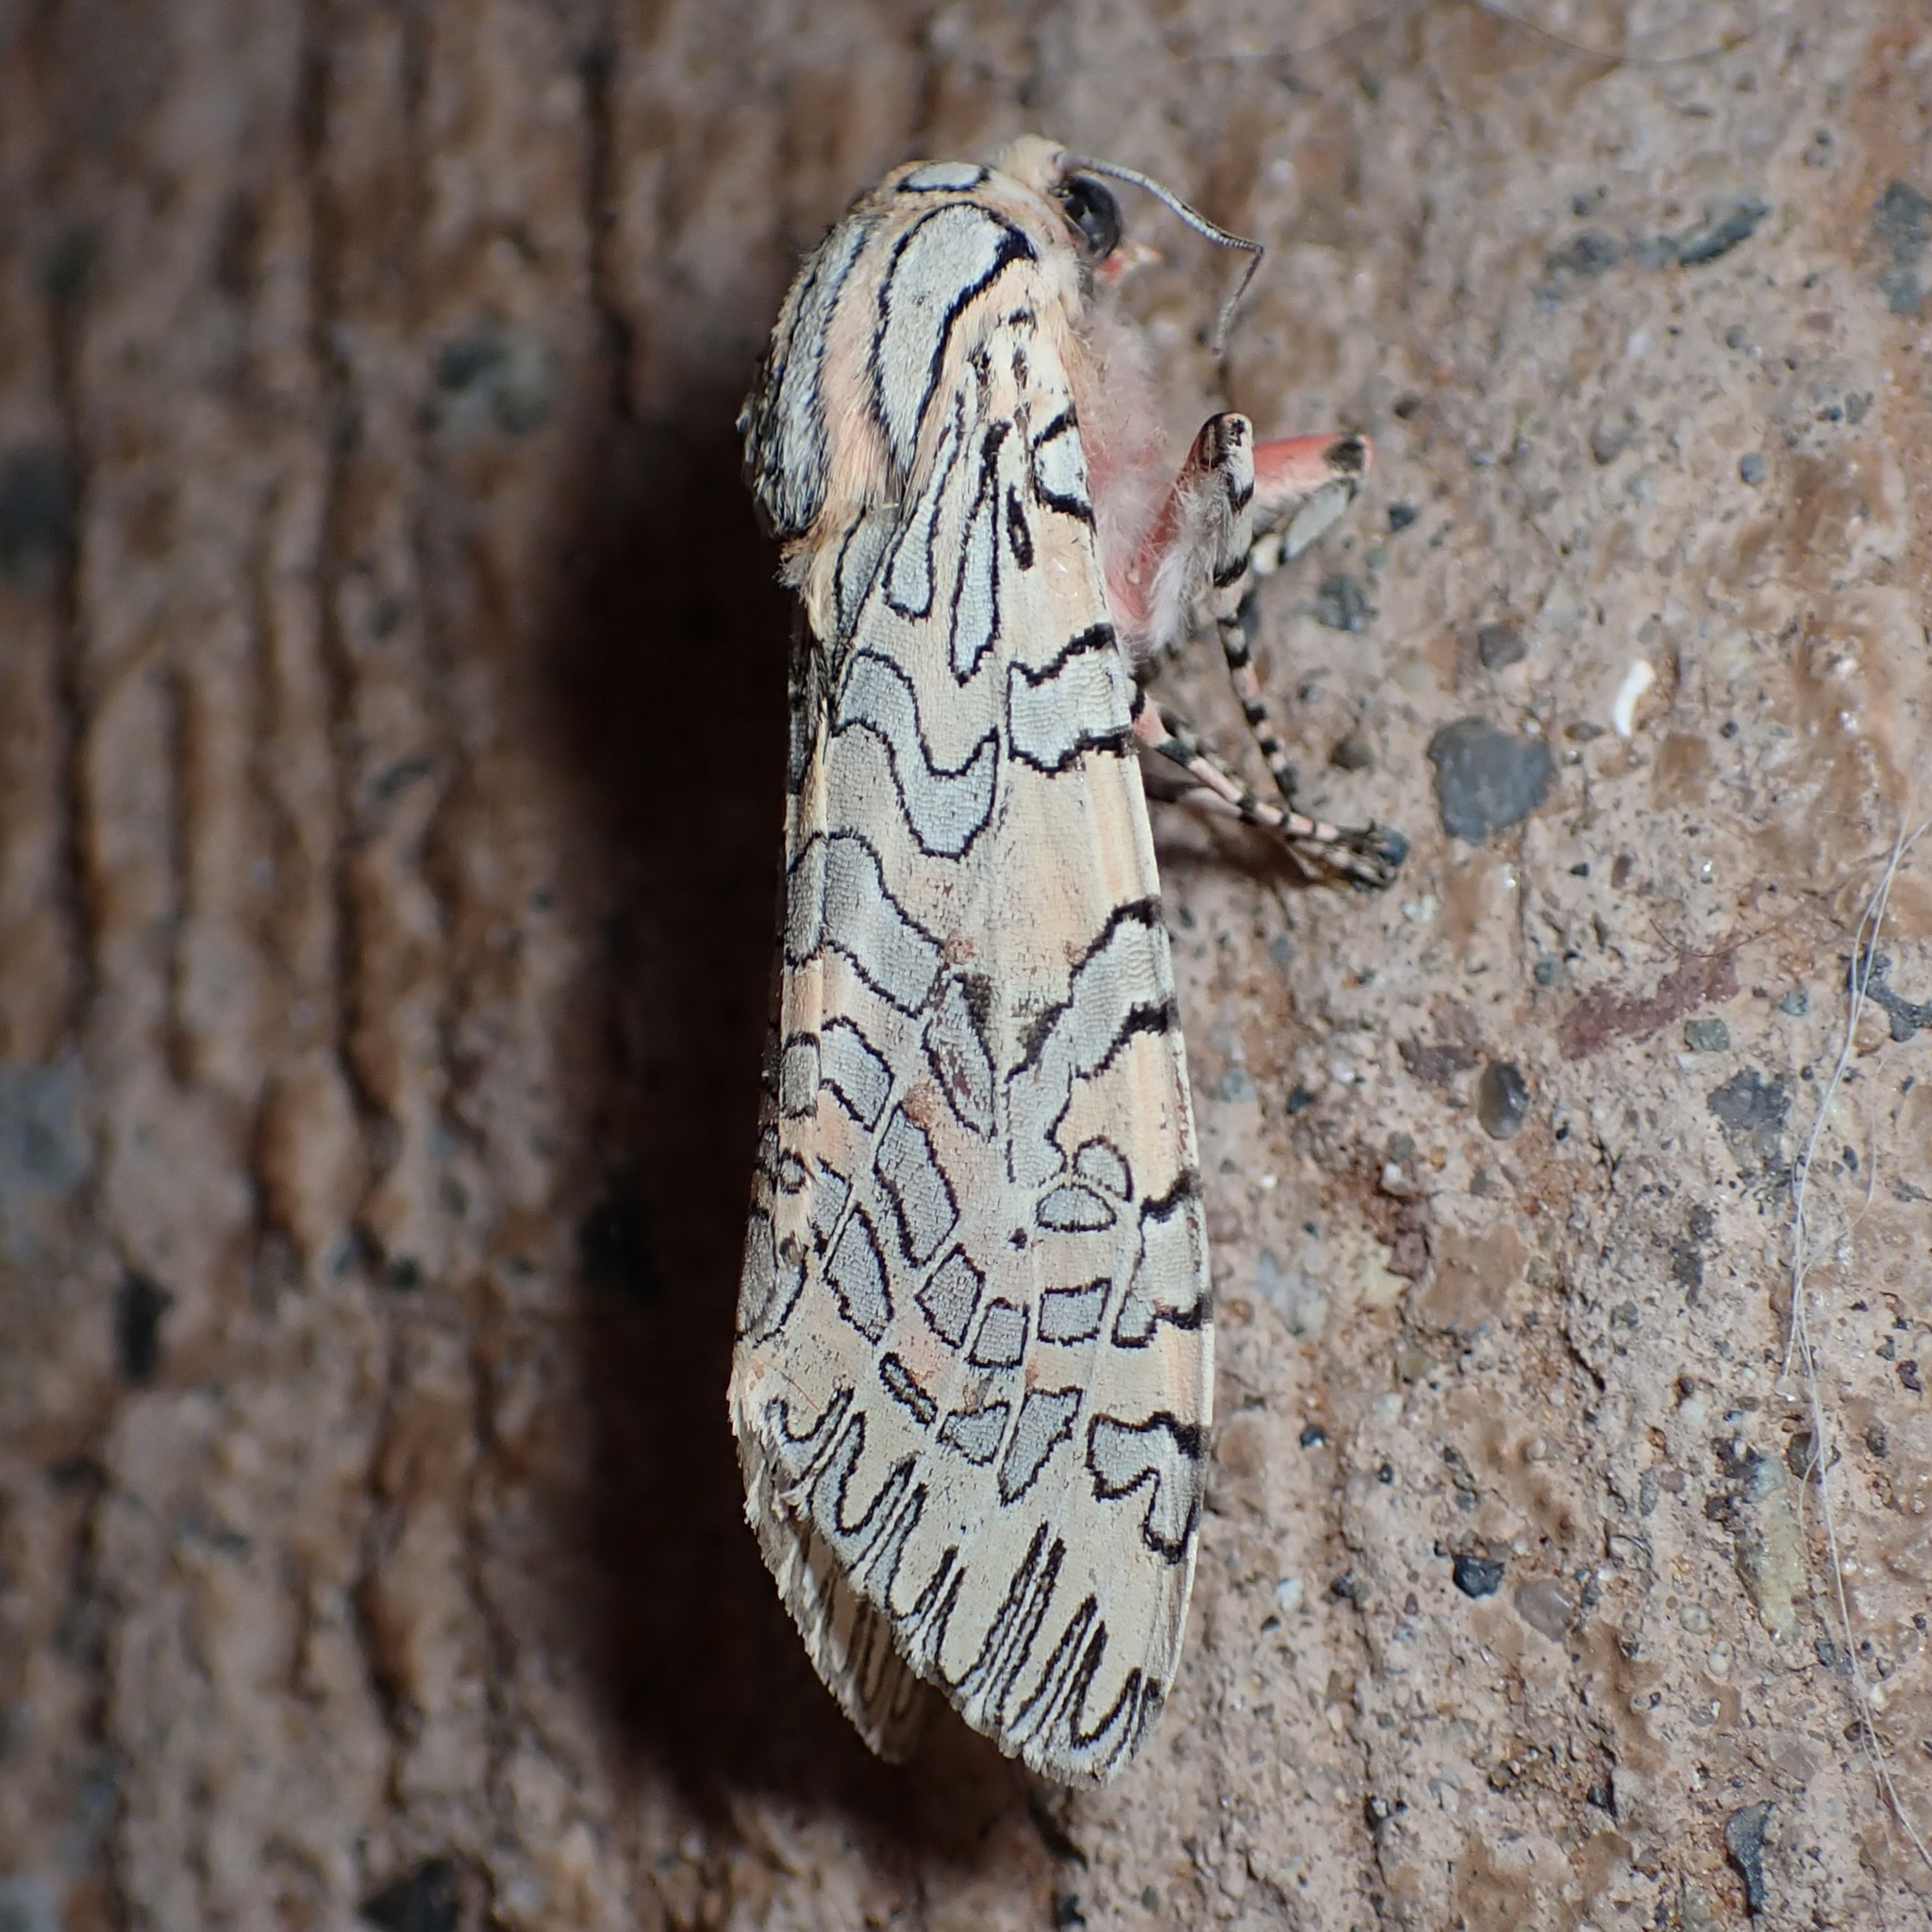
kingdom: Animalia
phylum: Arthropoda
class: Insecta
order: Lepidoptera
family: Erebidae
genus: Arachnis
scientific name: Arachnis citra
